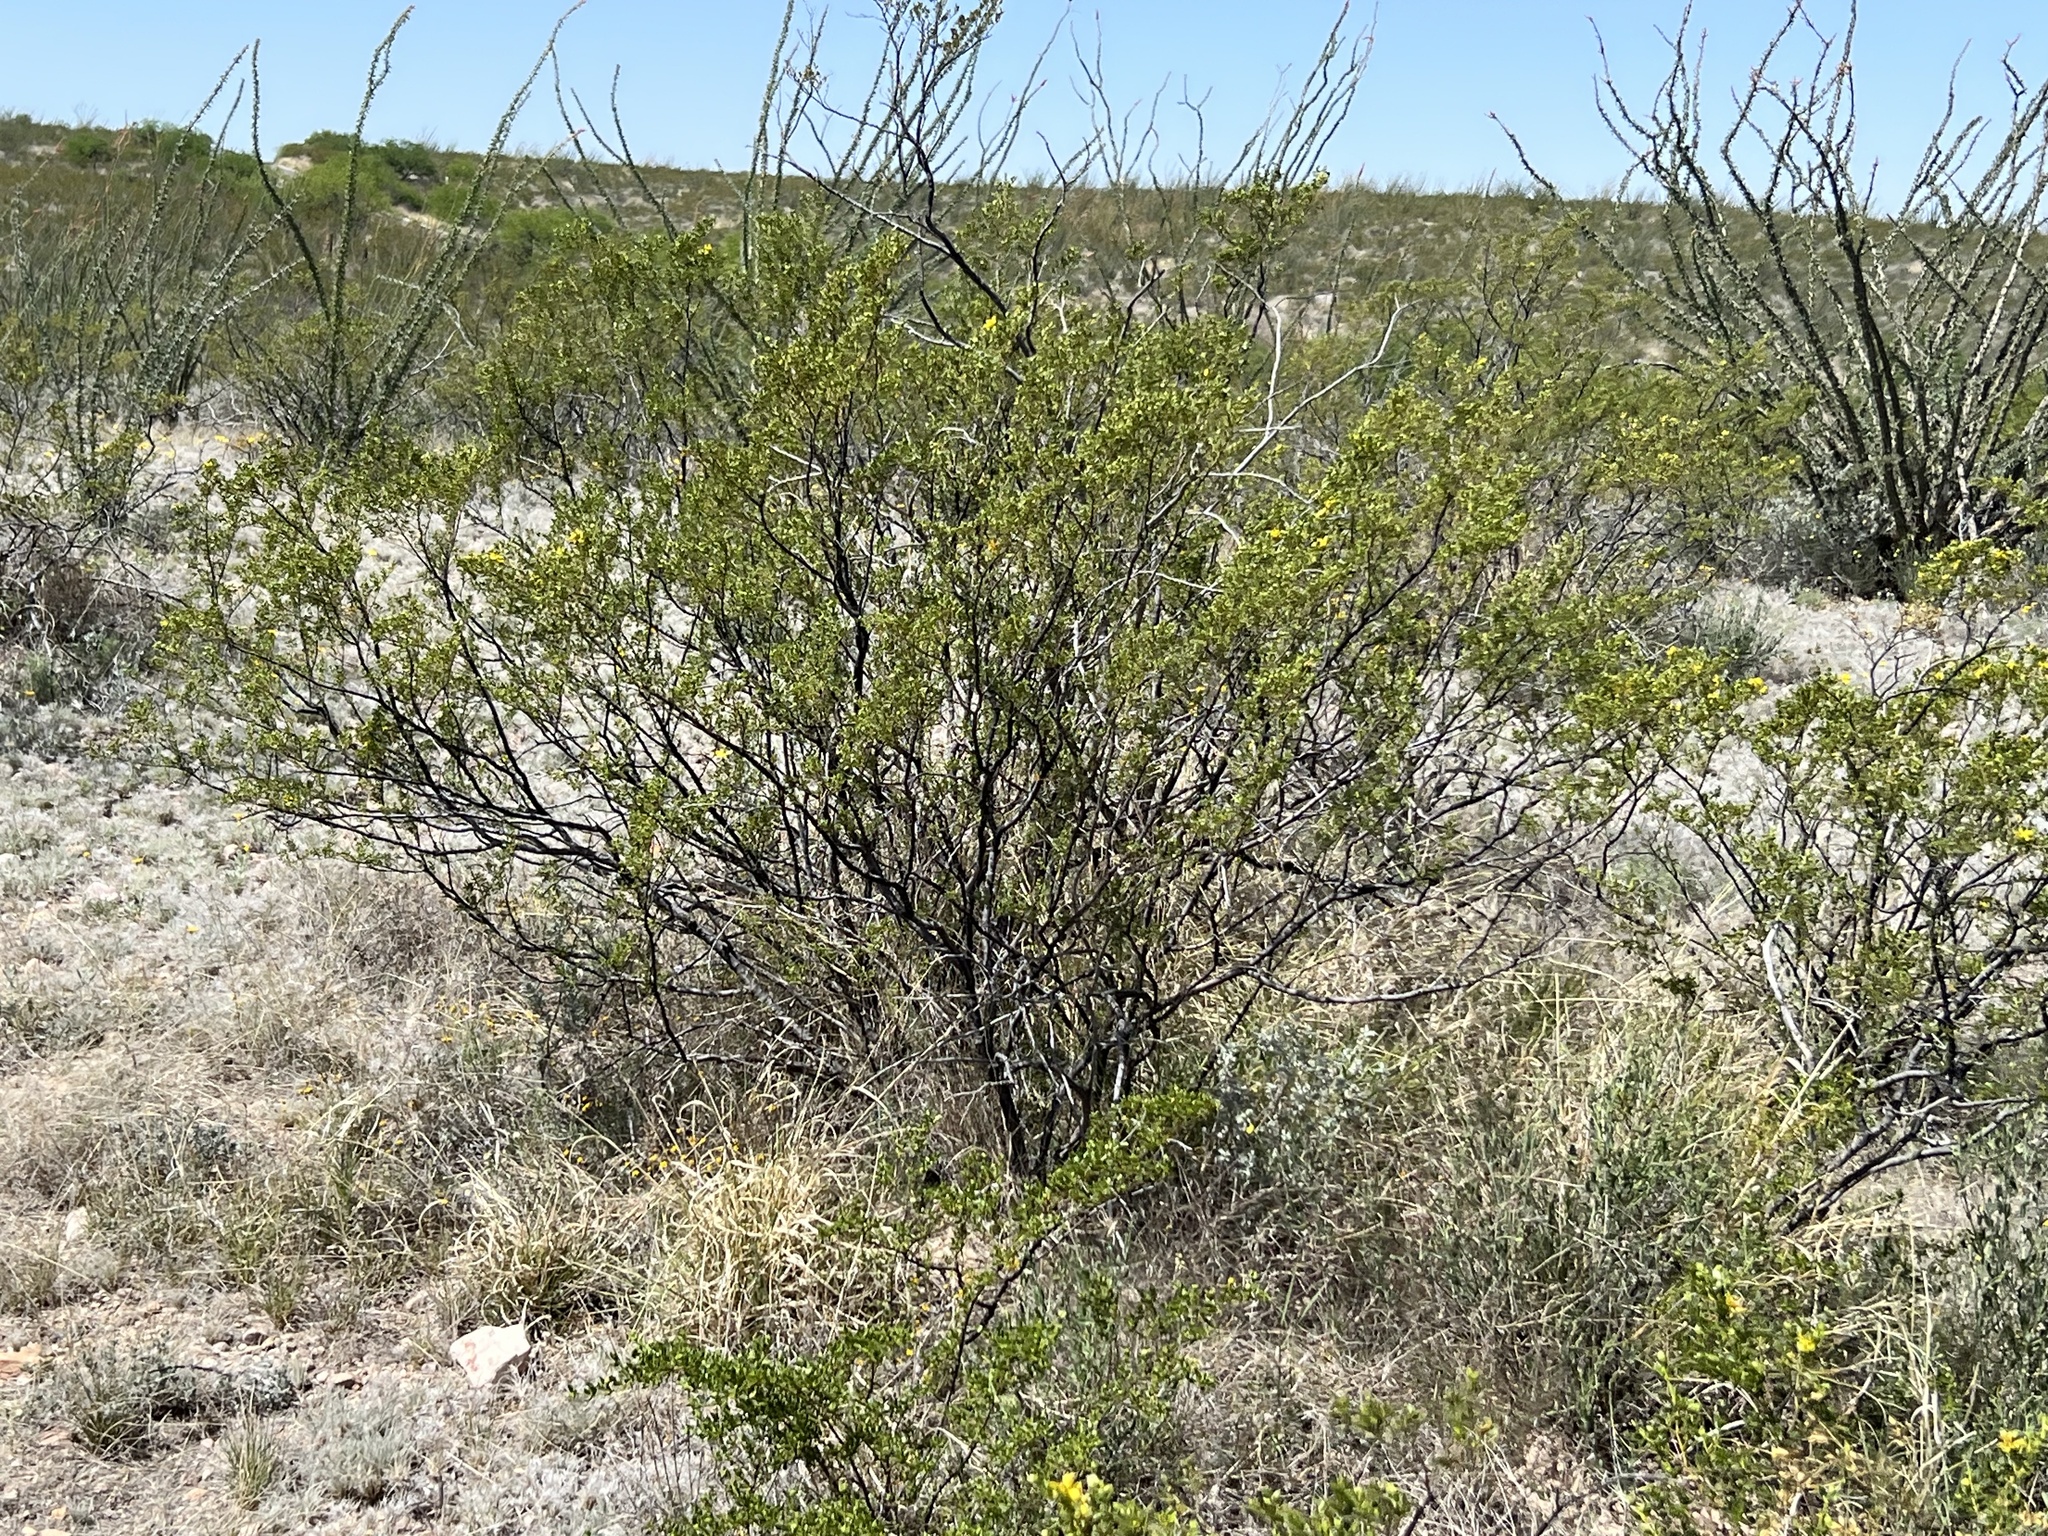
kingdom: Plantae
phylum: Tracheophyta
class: Magnoliopsida
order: Zygophyllales
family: Zygophyllaceae
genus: Larrea
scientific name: Larrea tridentata
